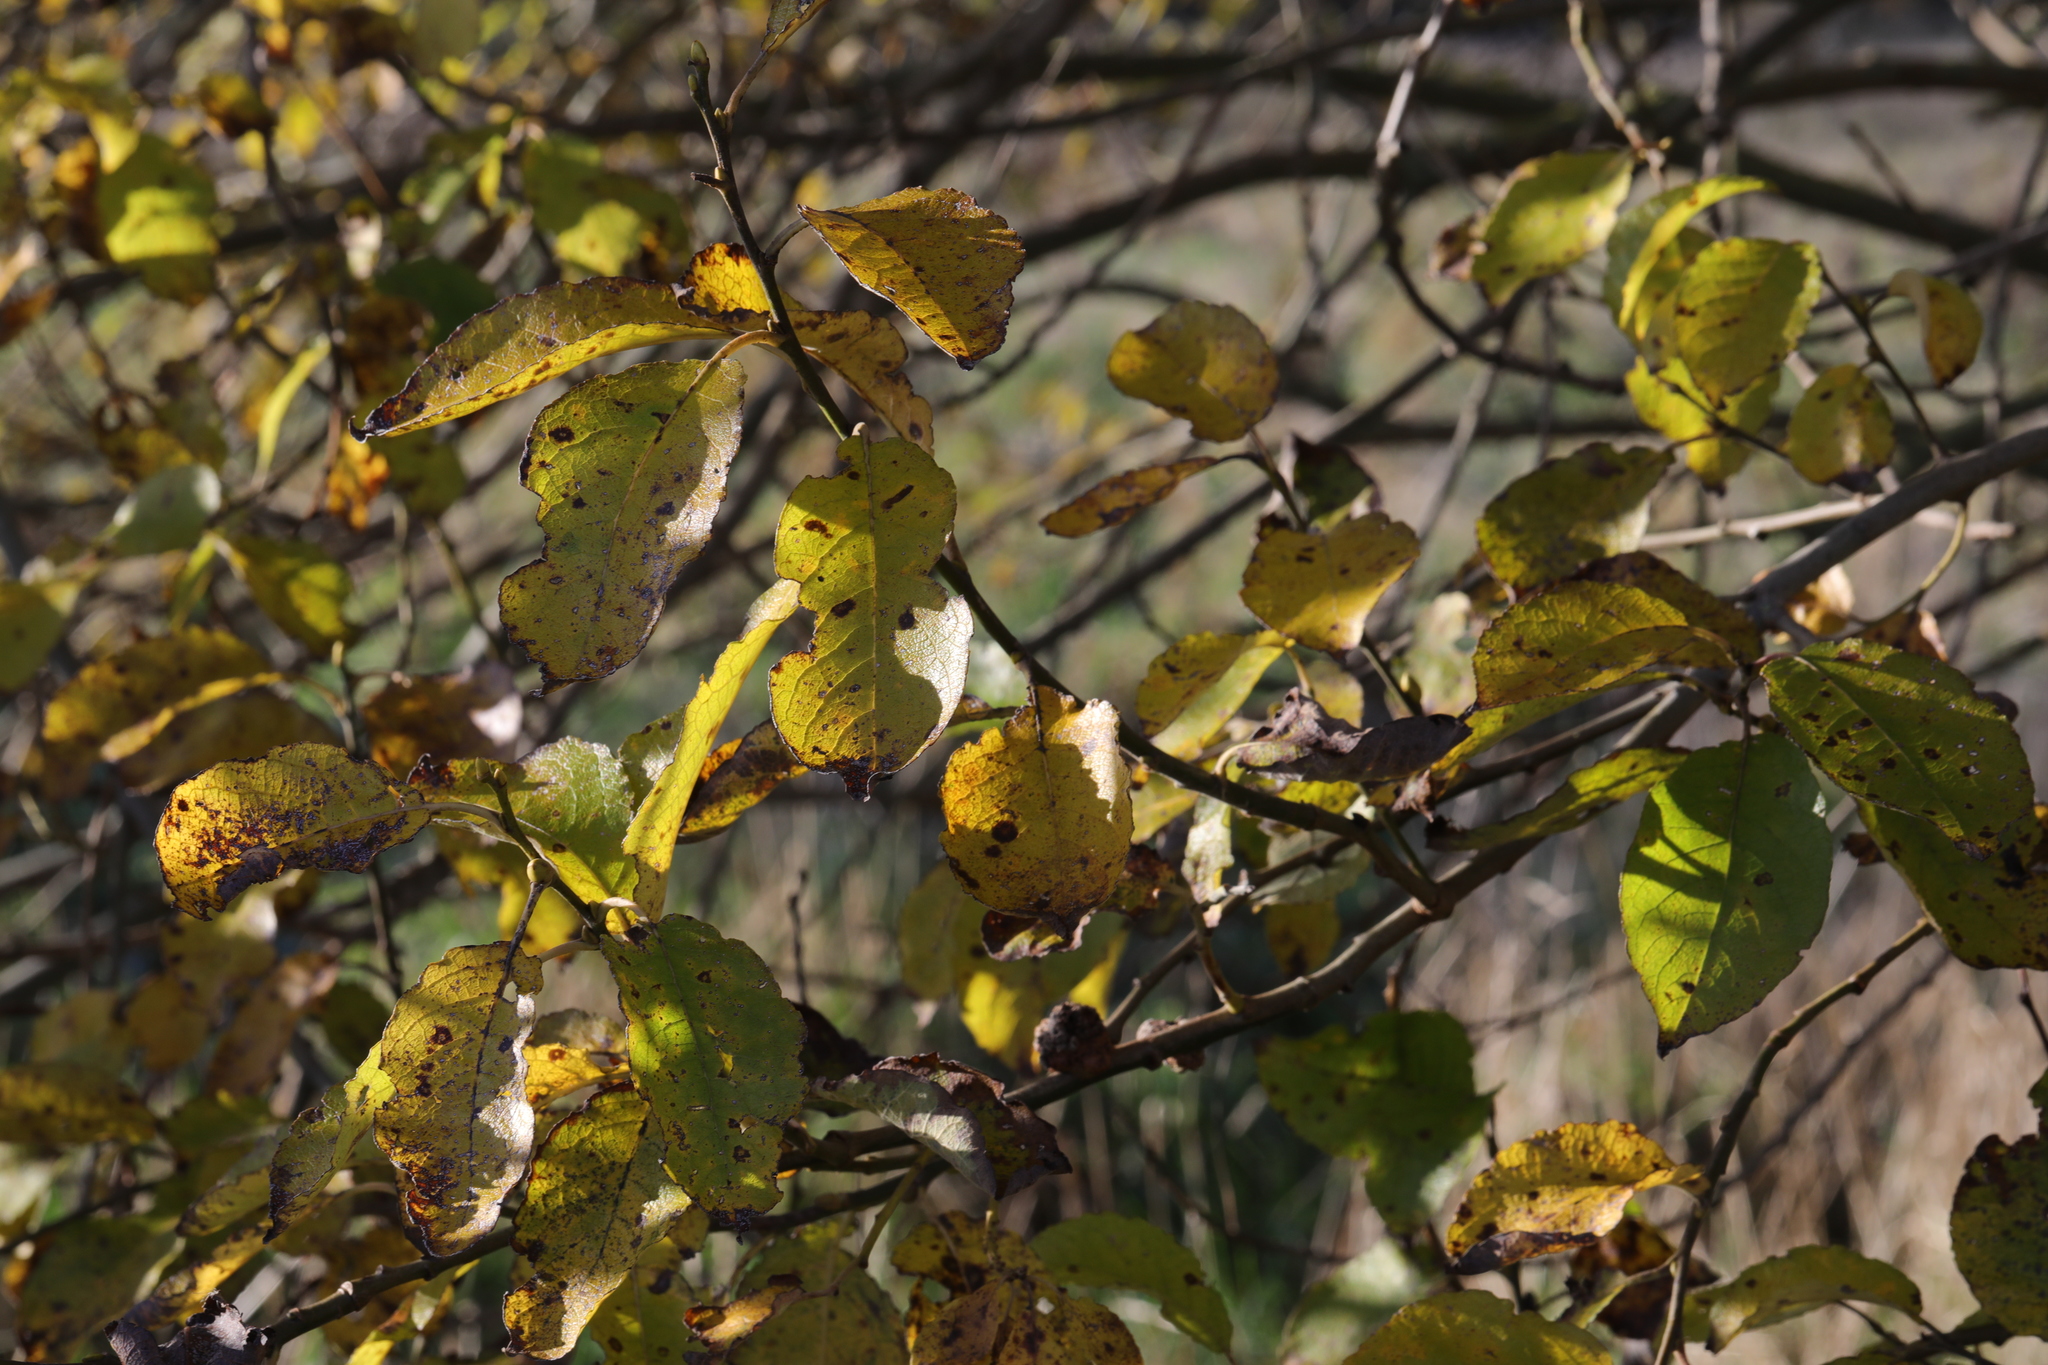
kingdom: Plantae
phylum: Tracheophyta
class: Magnoliopsida
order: Malpighiales
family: Salicaceae
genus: Salix
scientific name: Salix caprea
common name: Goat willow
